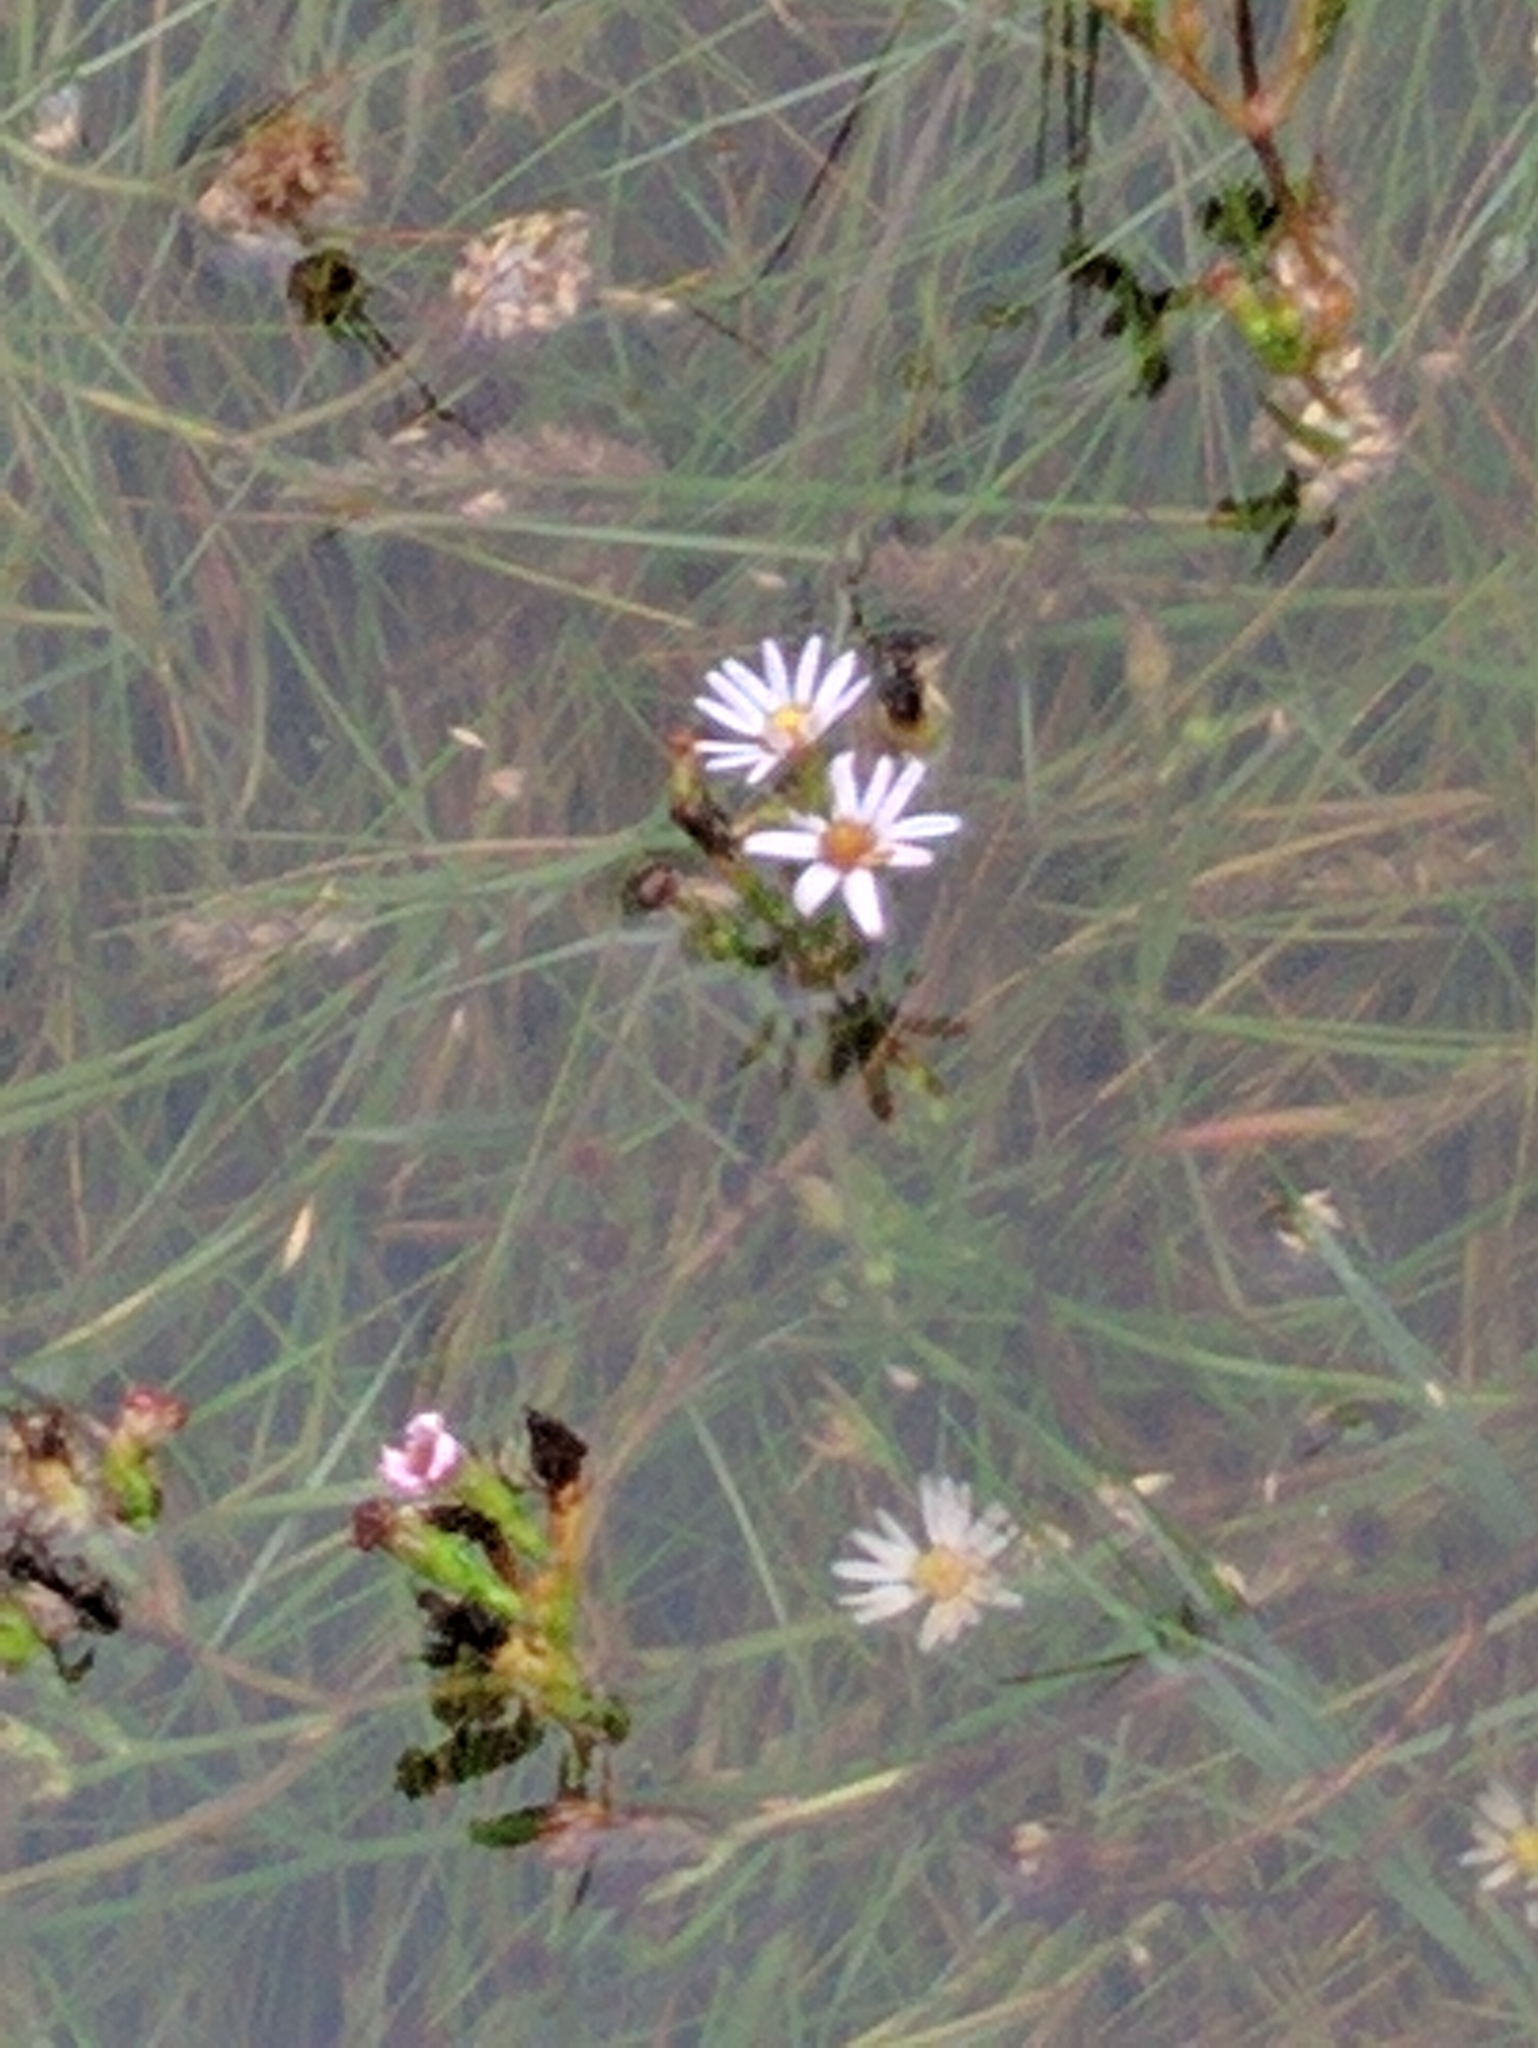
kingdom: Plantae
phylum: Tracheophyta
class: Magnoliopsida
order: Asterales
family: Asteraceae
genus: Symphyotrichum
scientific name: Symphyotrichum tenuifolium
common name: Perennial salt-marsh aster
